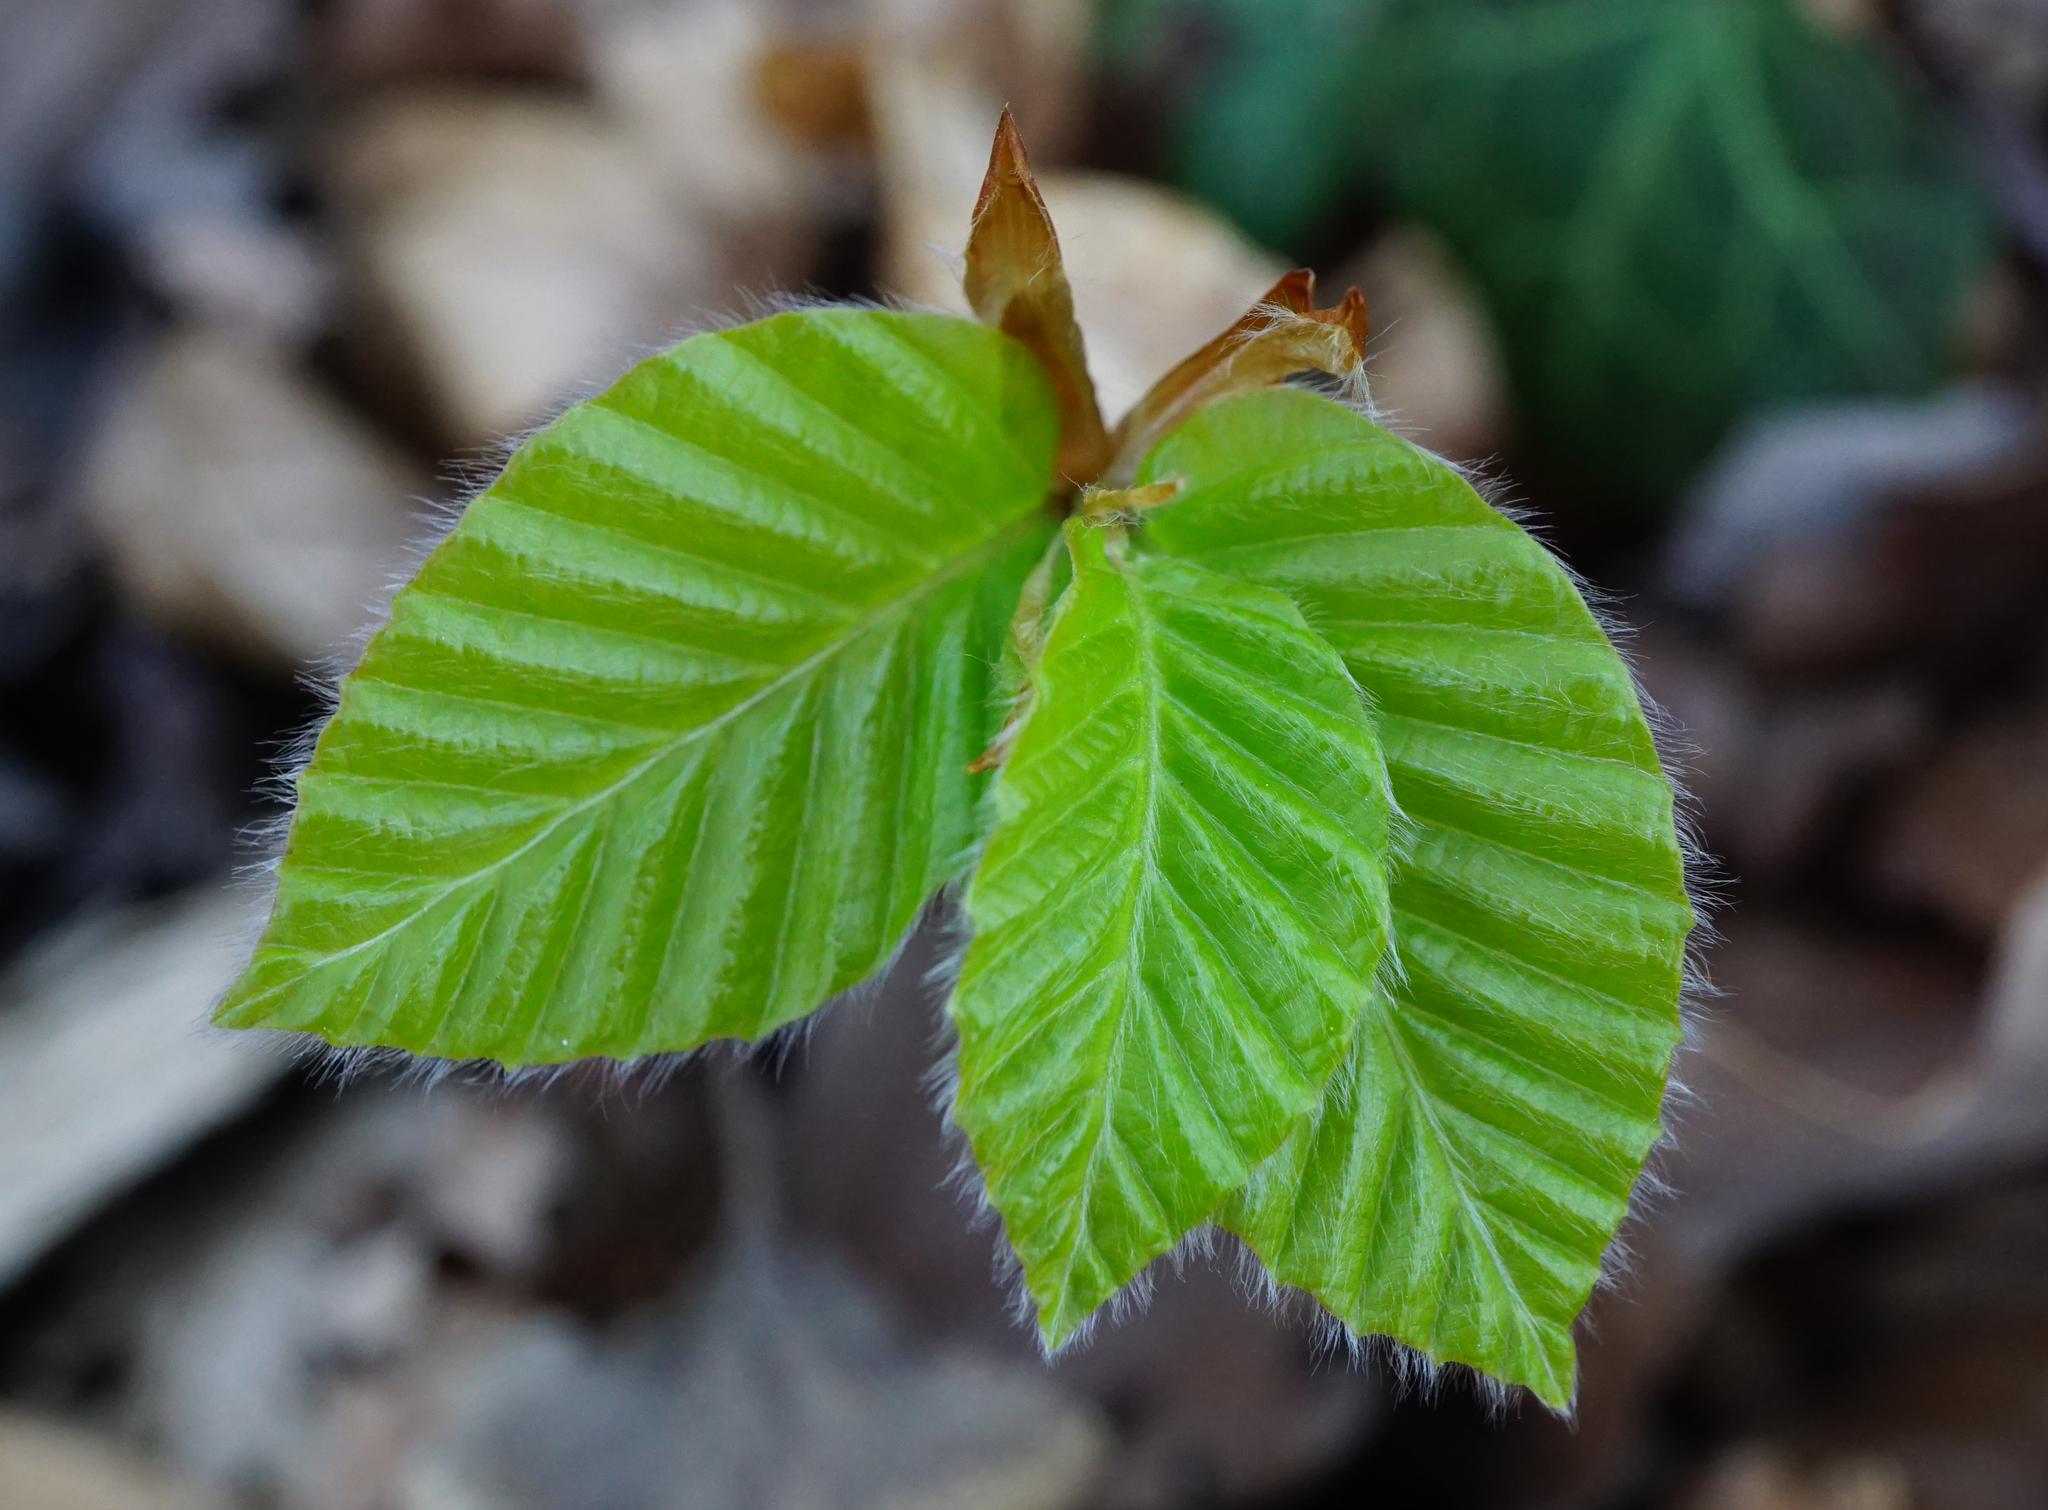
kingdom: Plantae
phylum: Tracheophyta
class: Magnoliopsida
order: Fagales
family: Fagaceae
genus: Fagus
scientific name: Fagus sylvatica
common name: Beech
